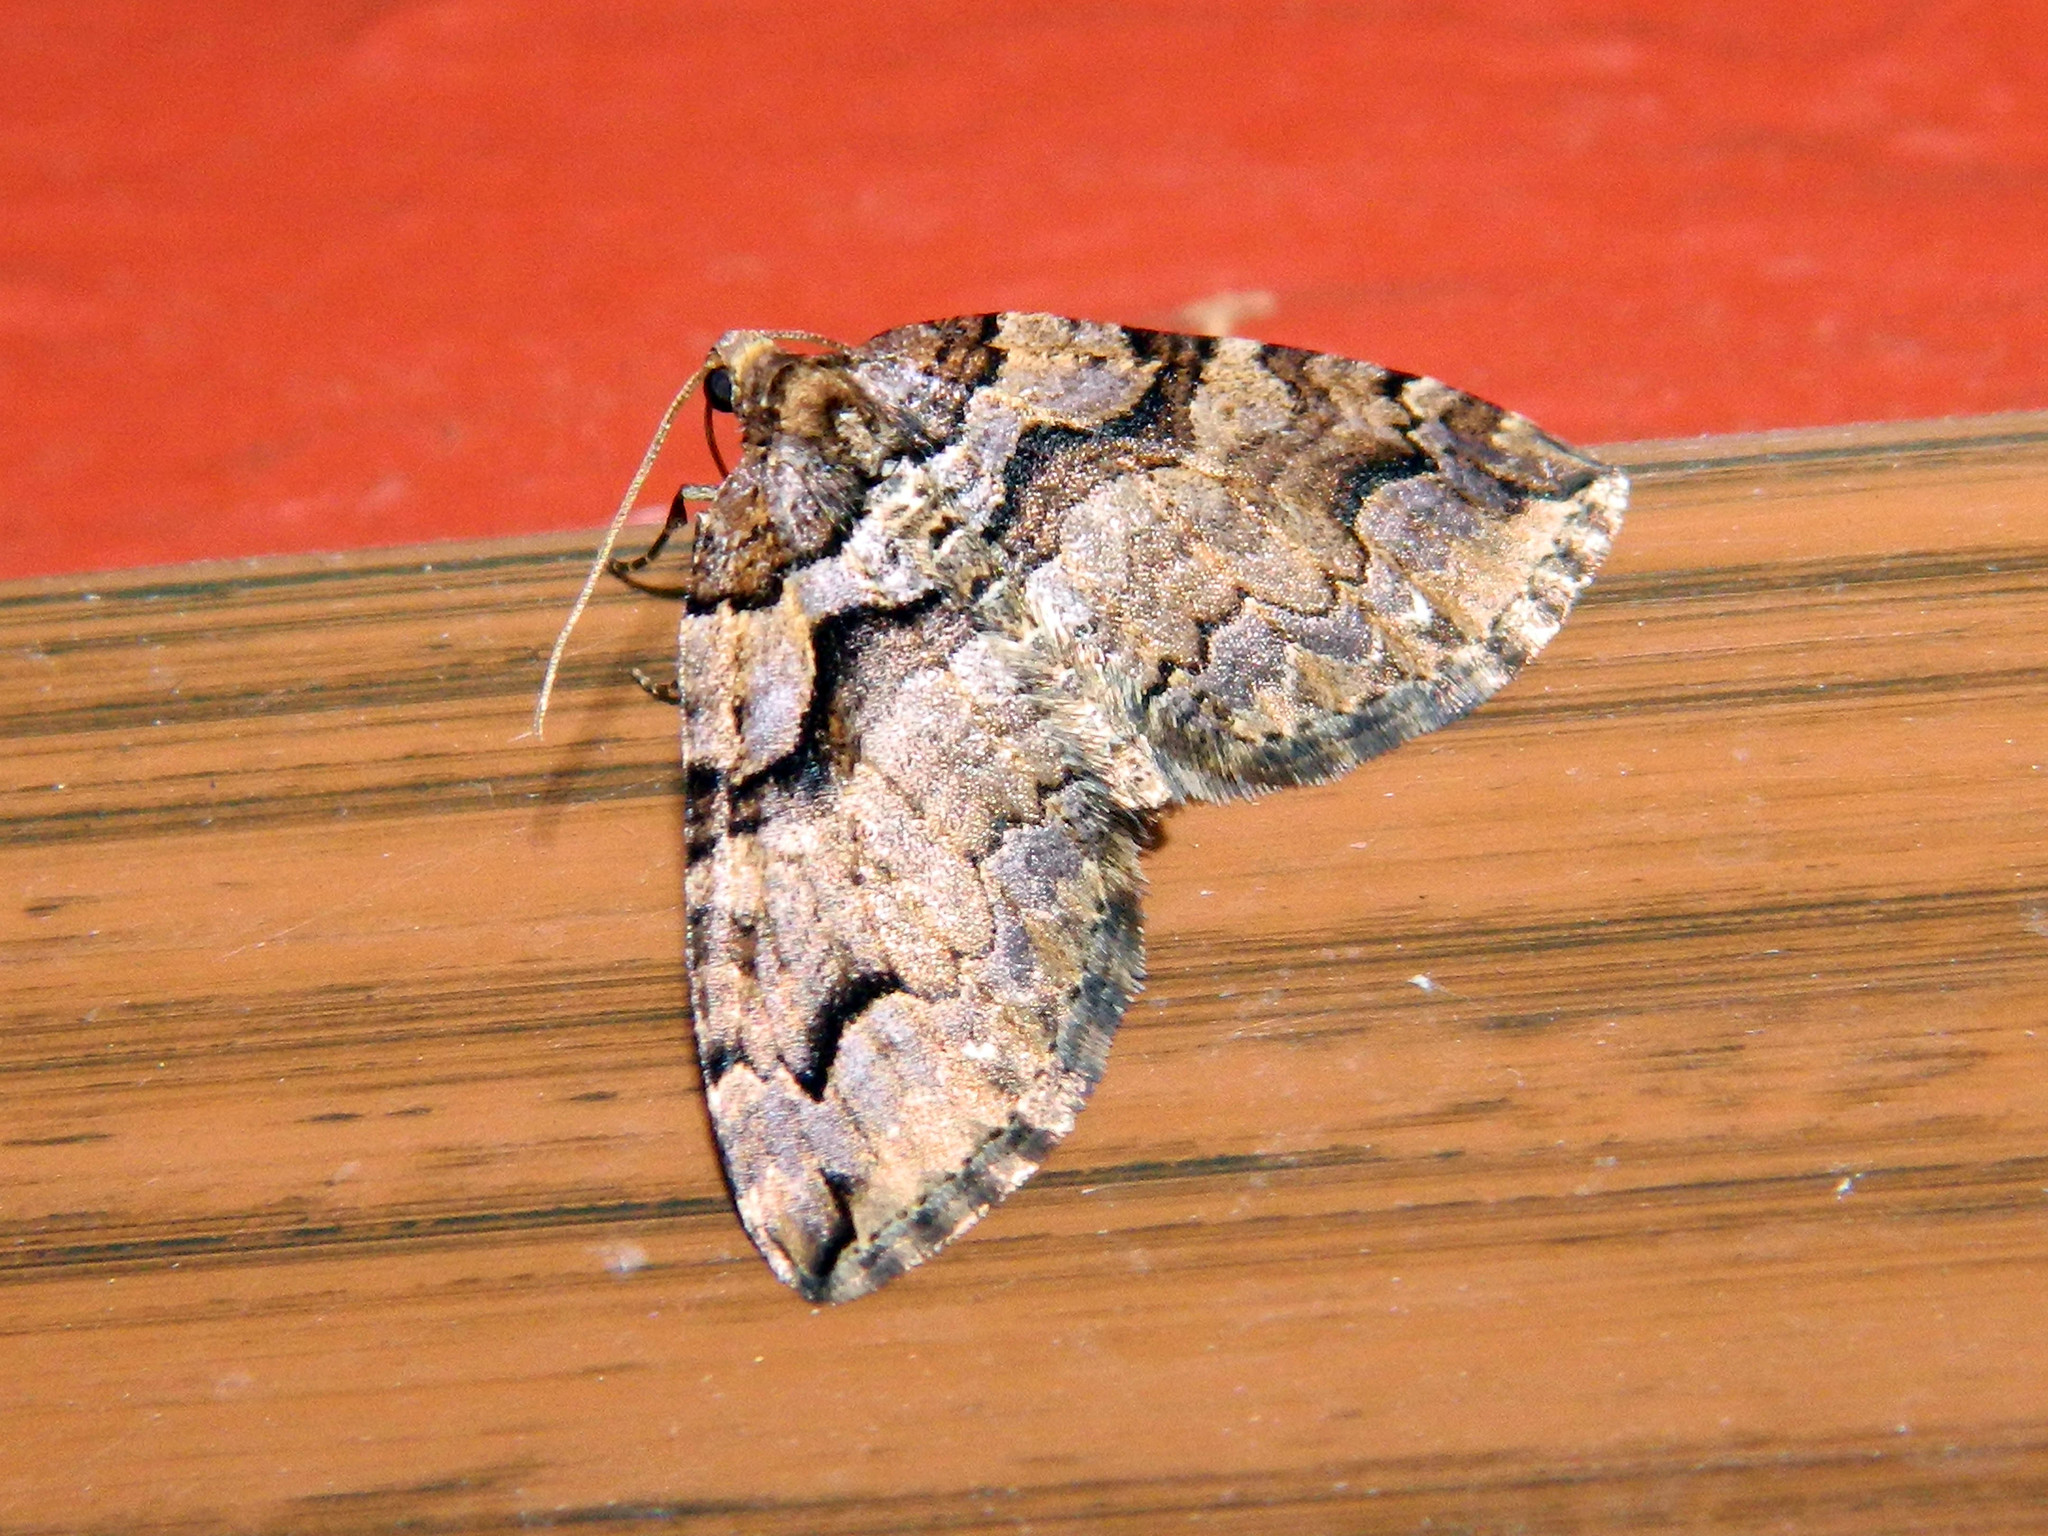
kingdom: Animalia
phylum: Arthropoda
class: Insecta
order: Lepidoptera
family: Geometridae
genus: Anticlea
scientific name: Anticlea vasiliata
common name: Variable carpet
